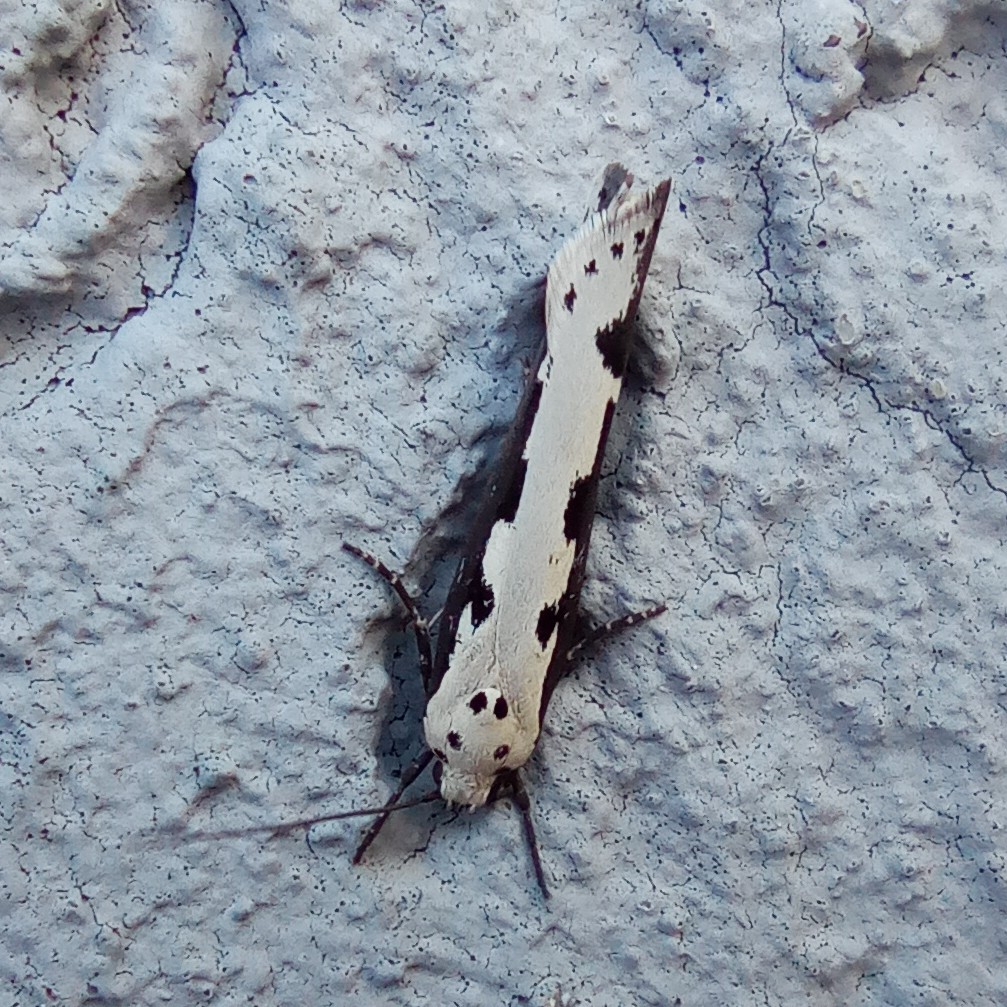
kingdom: Animalia
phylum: Arthropoda
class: Insecta
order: Lepidoptera
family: Ethmiidae
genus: Ethmia
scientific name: Ethmia bipunctella
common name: Bordered ermel
